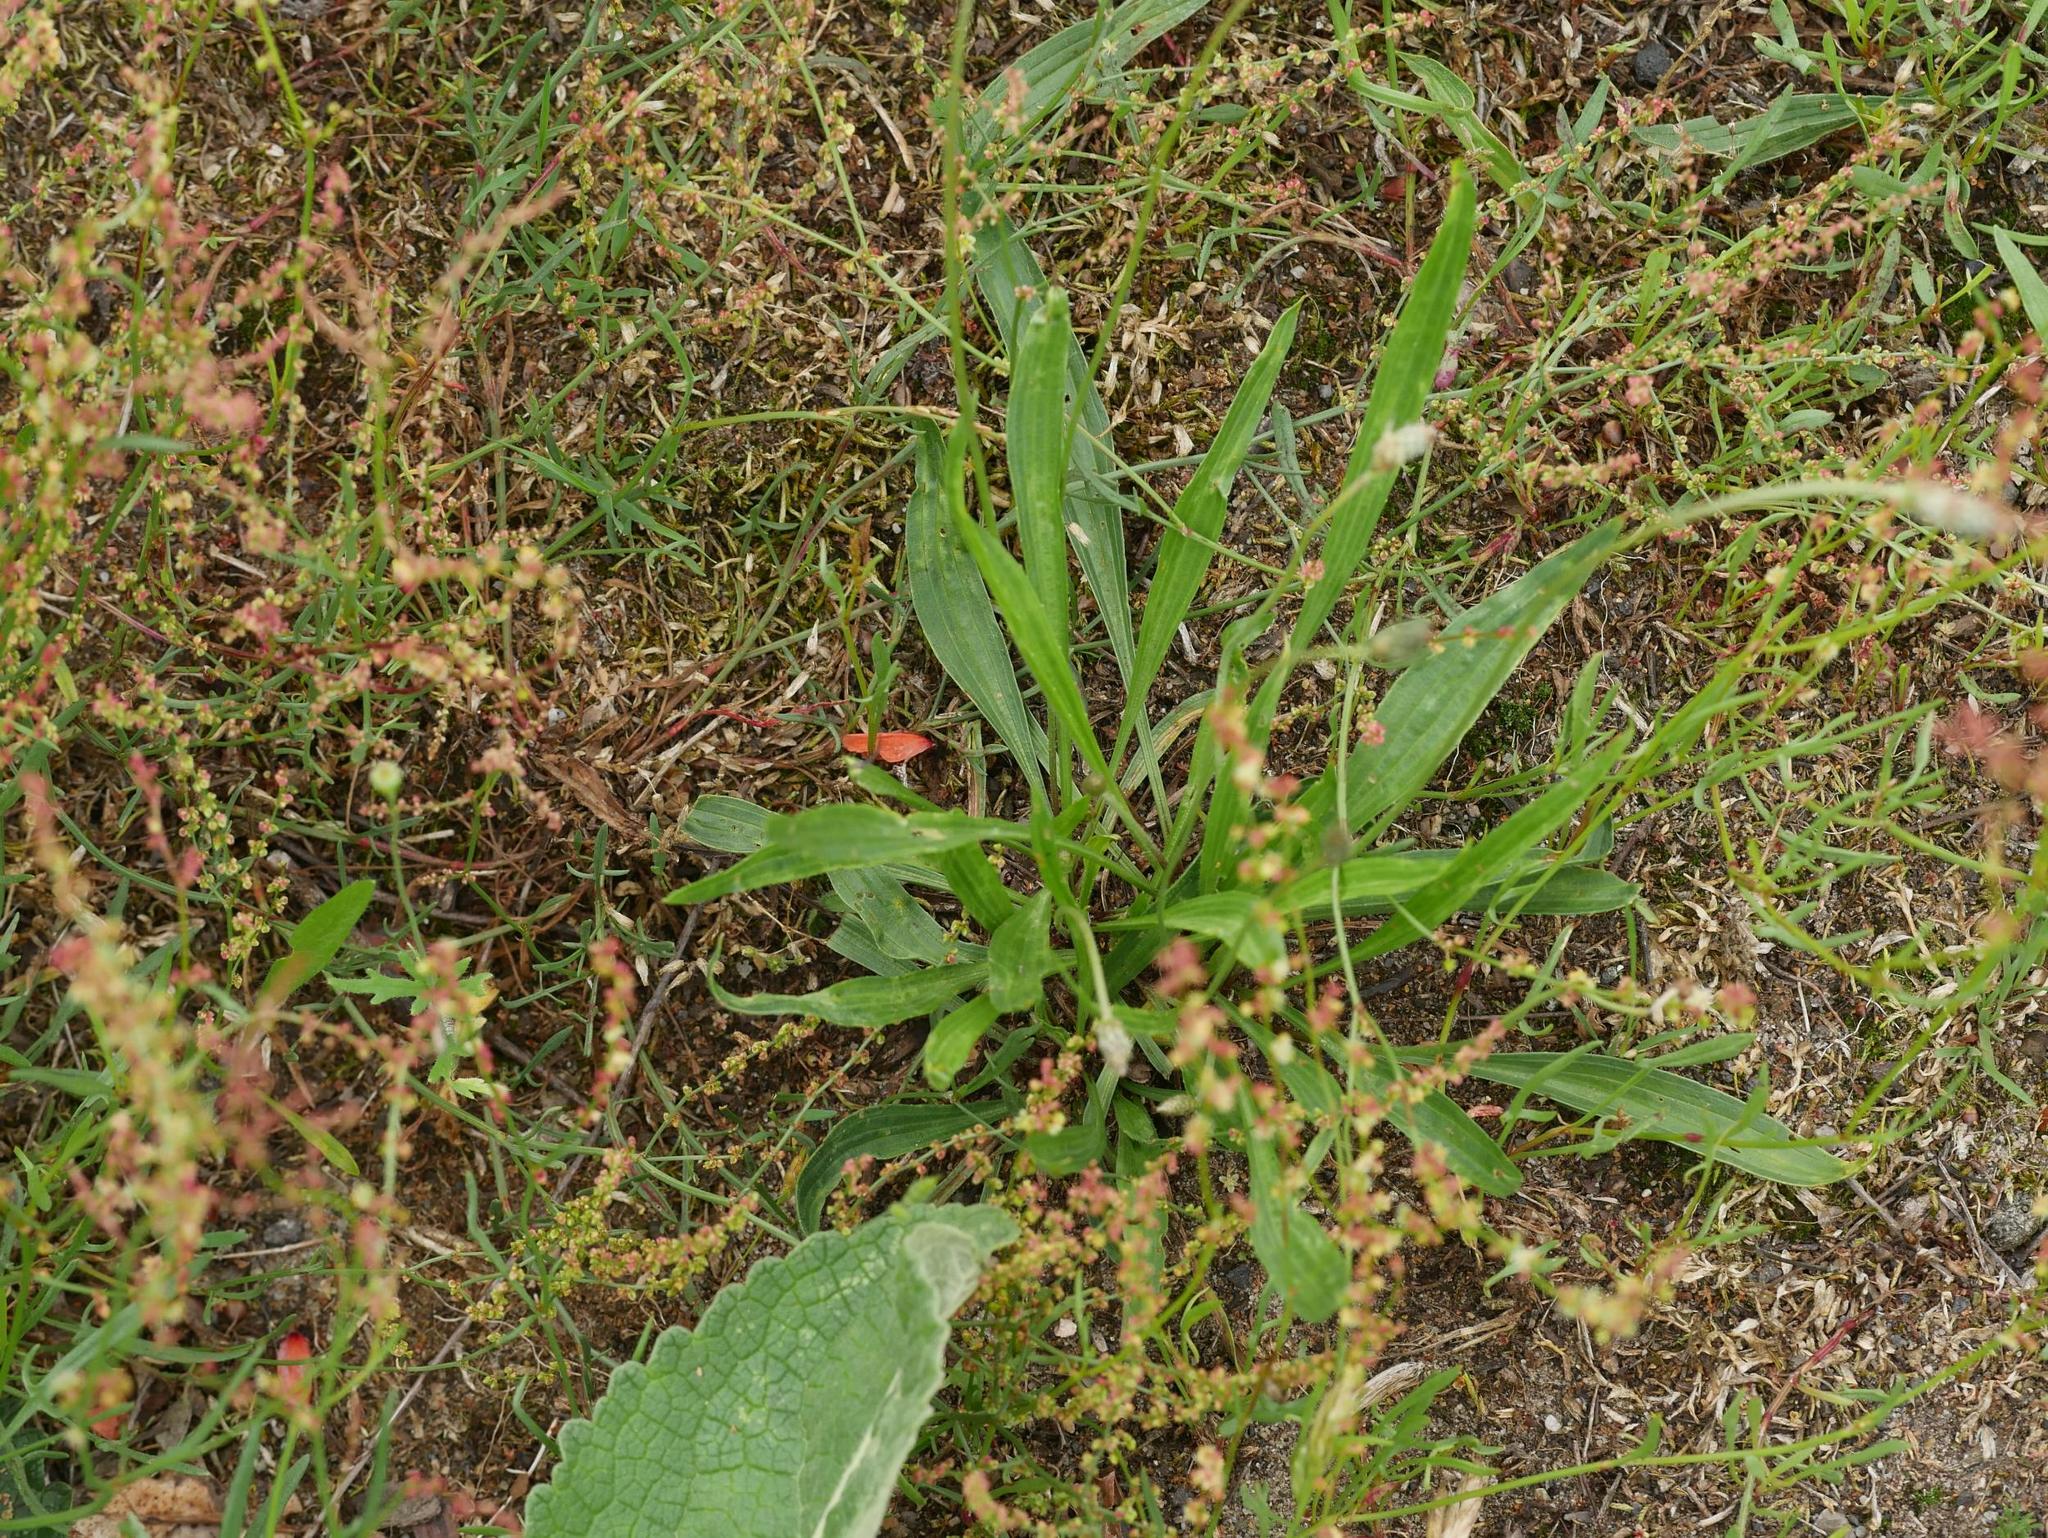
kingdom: Plantae
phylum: Tracheophyta
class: Magnoliopsida
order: Lamiales
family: Plantaginaceae
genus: Plantago
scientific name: Plantago lanceolata
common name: Ribwort plantain
